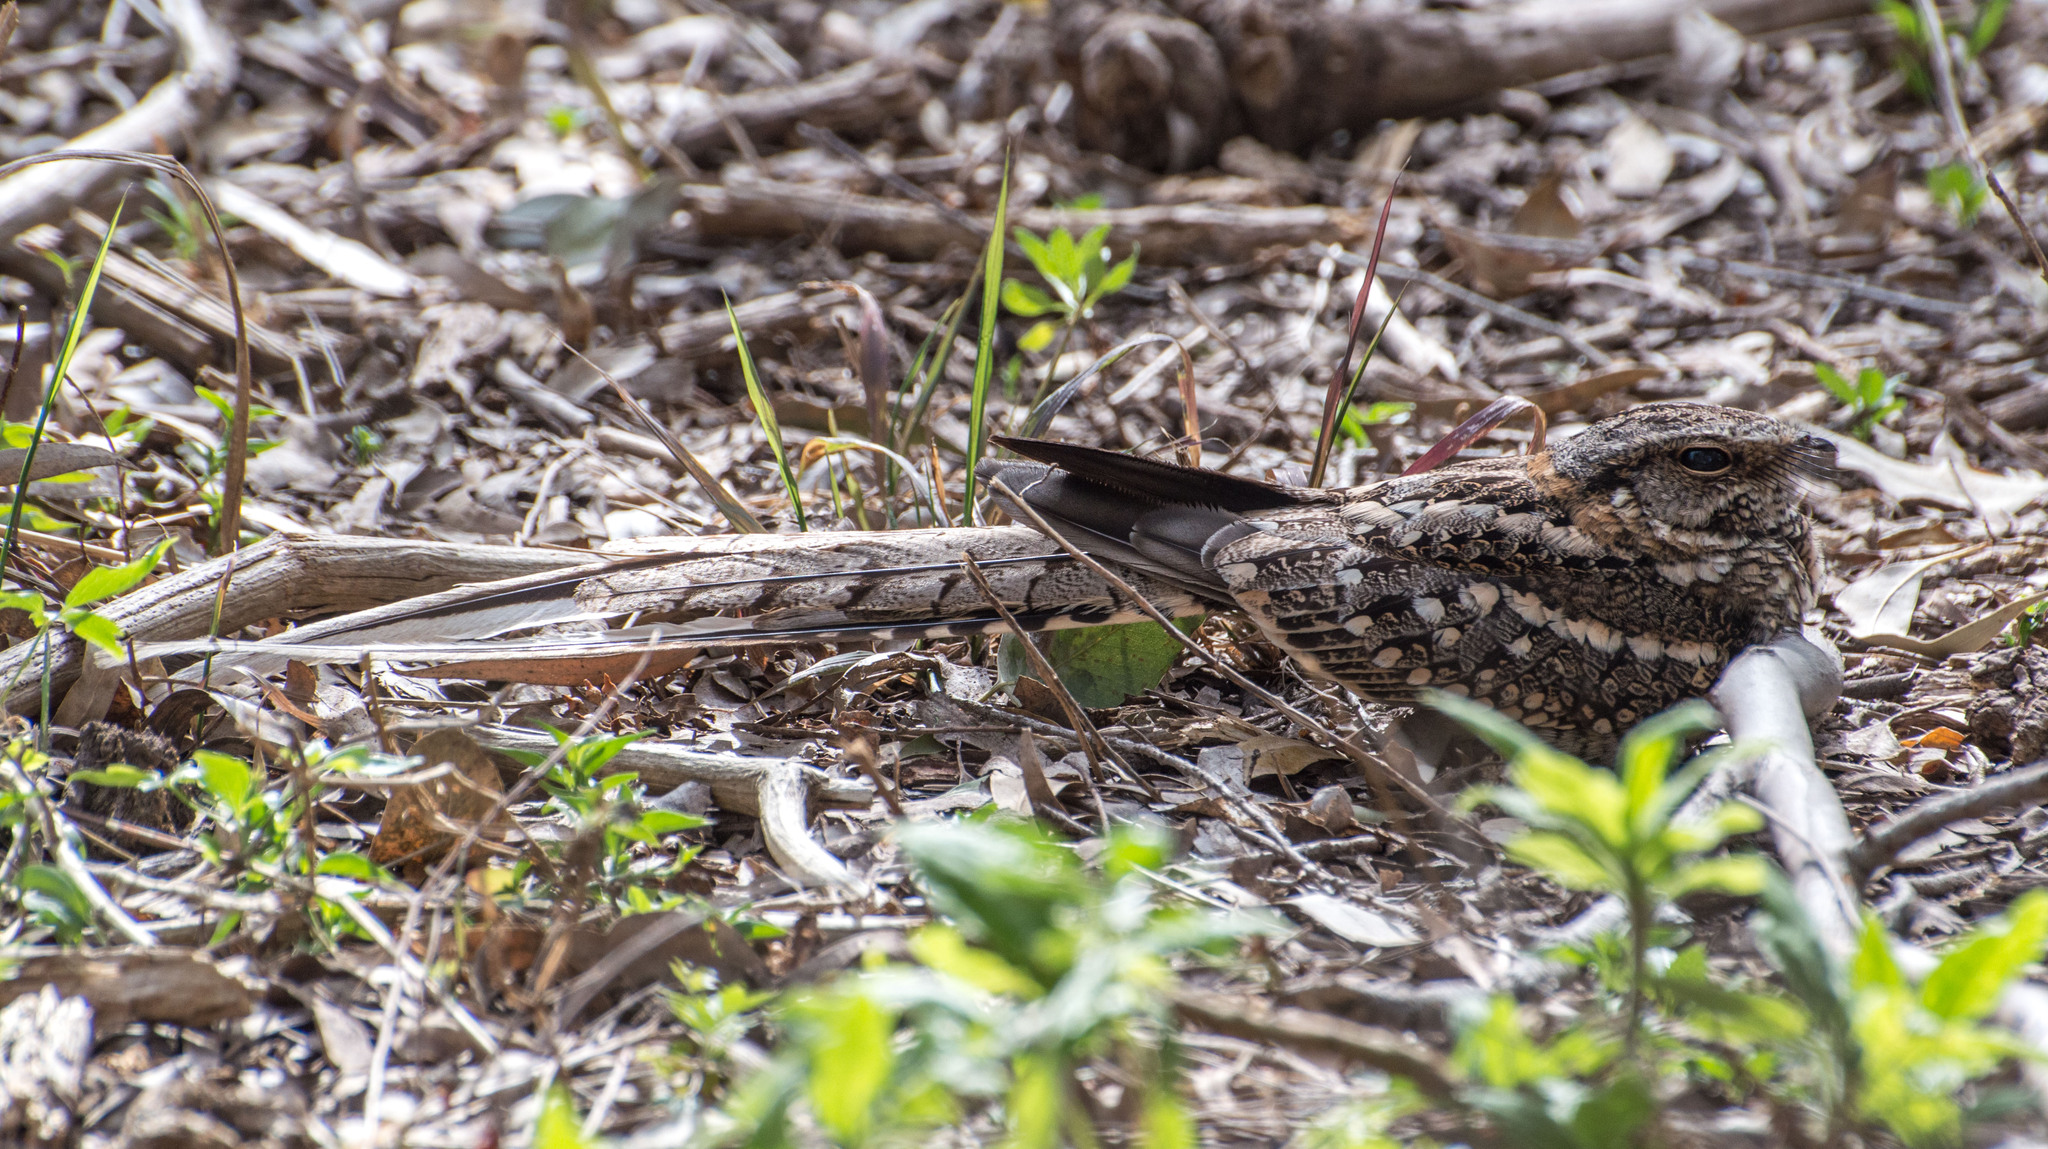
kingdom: Animalia
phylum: Chordata
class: Aves
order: Caprimulgiformes
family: Caprimulgidae
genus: Hydropsalis
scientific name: Hydropsalis torquata
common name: Scissor-tailed nightjar
